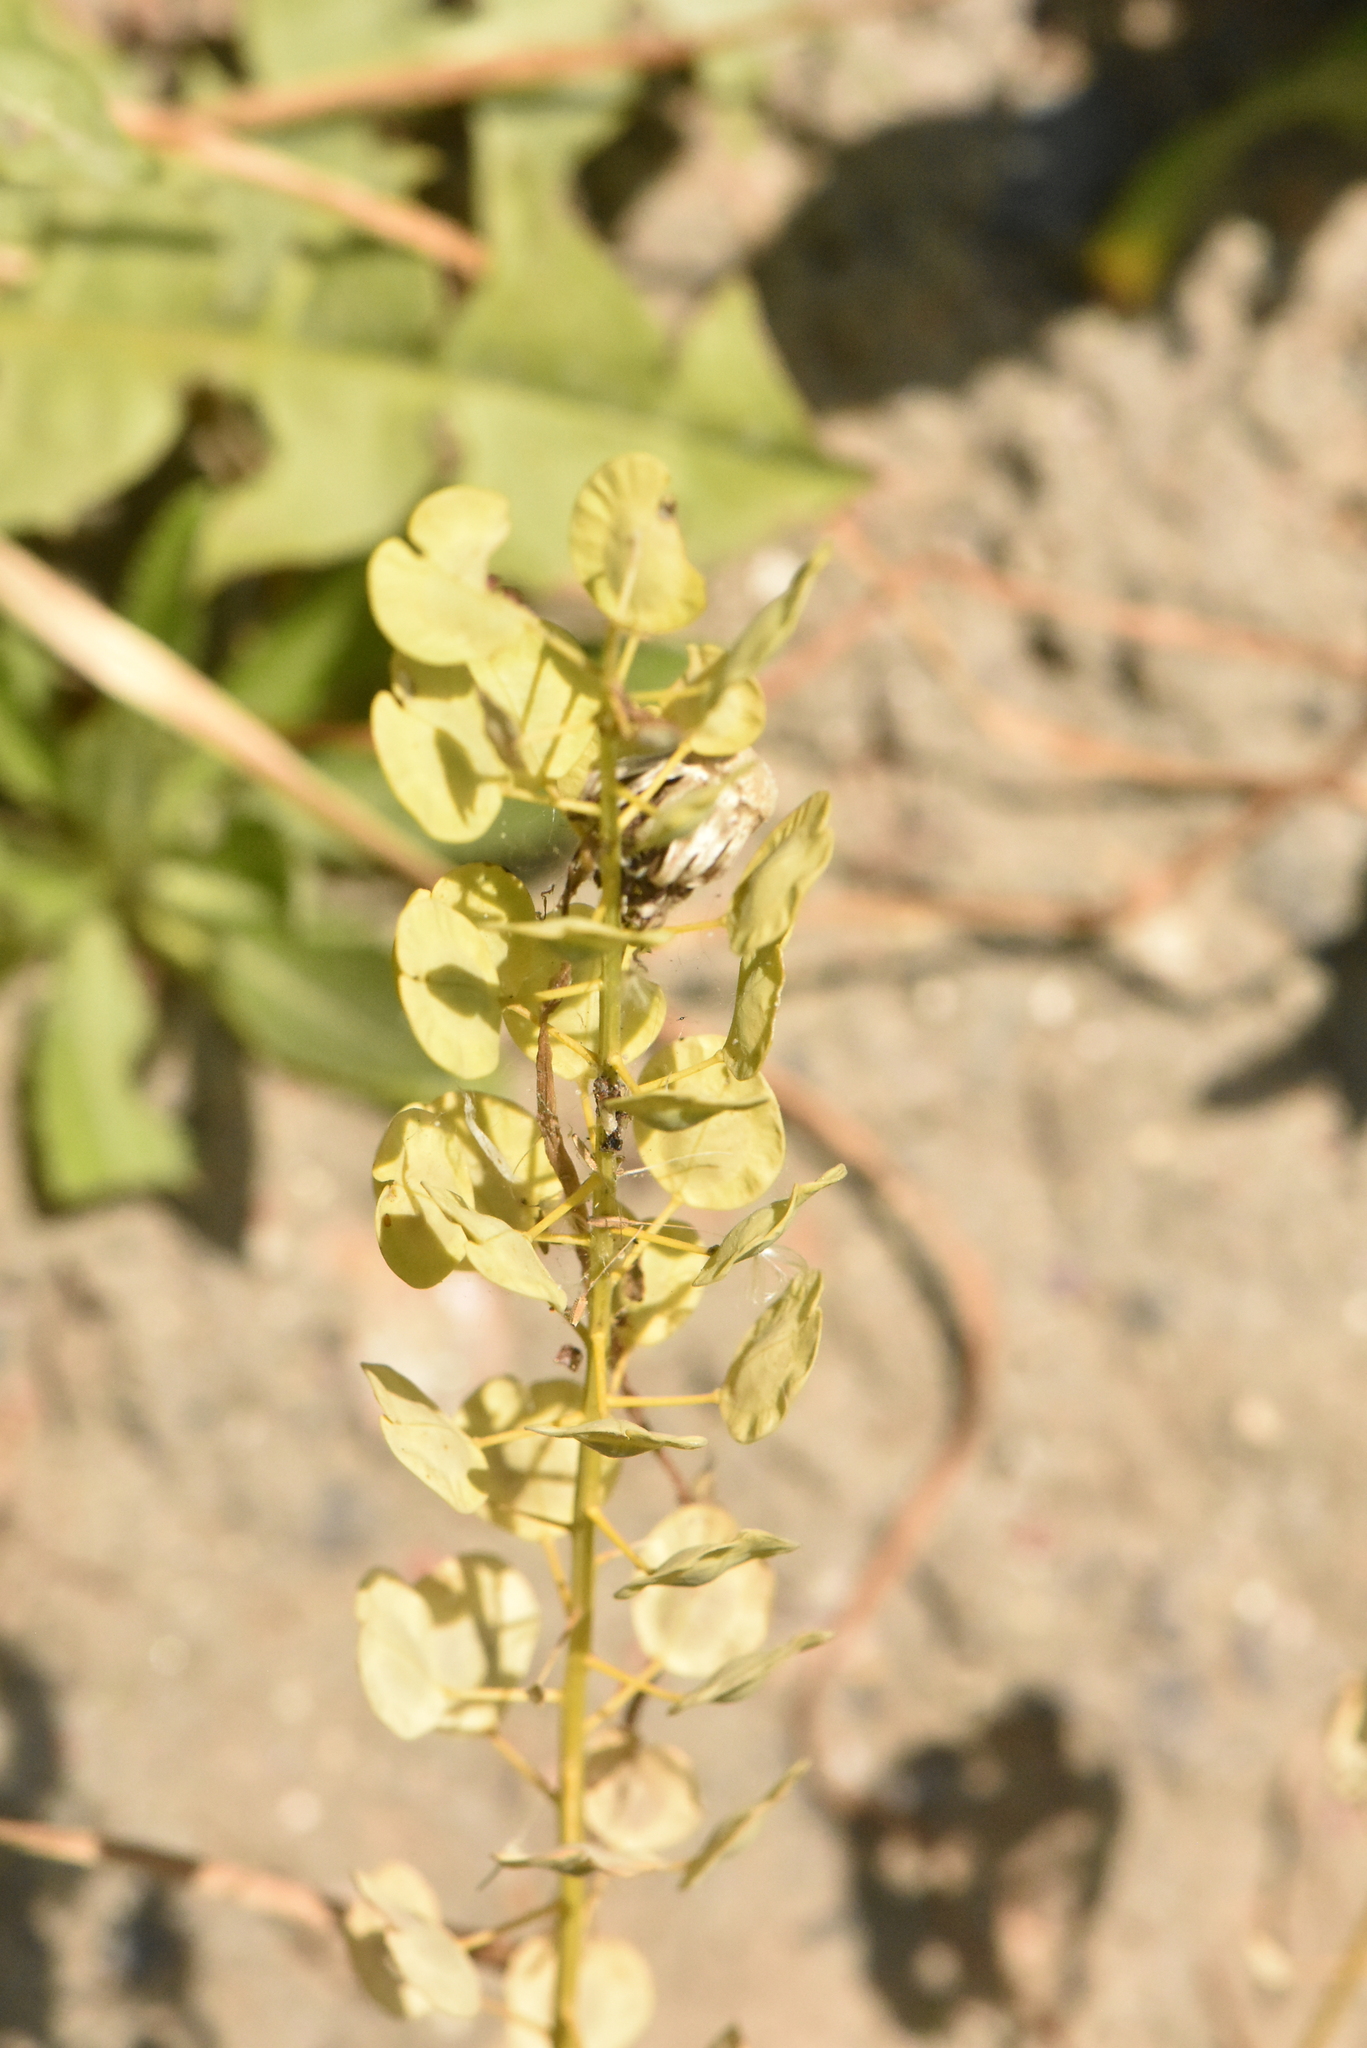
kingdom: Plantae
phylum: Tracheophyta
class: Magnoliopsida
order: Brassicales
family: Brassicaceae
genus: Thlaspi
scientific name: Thlaspi arvense
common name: Field pennycress
